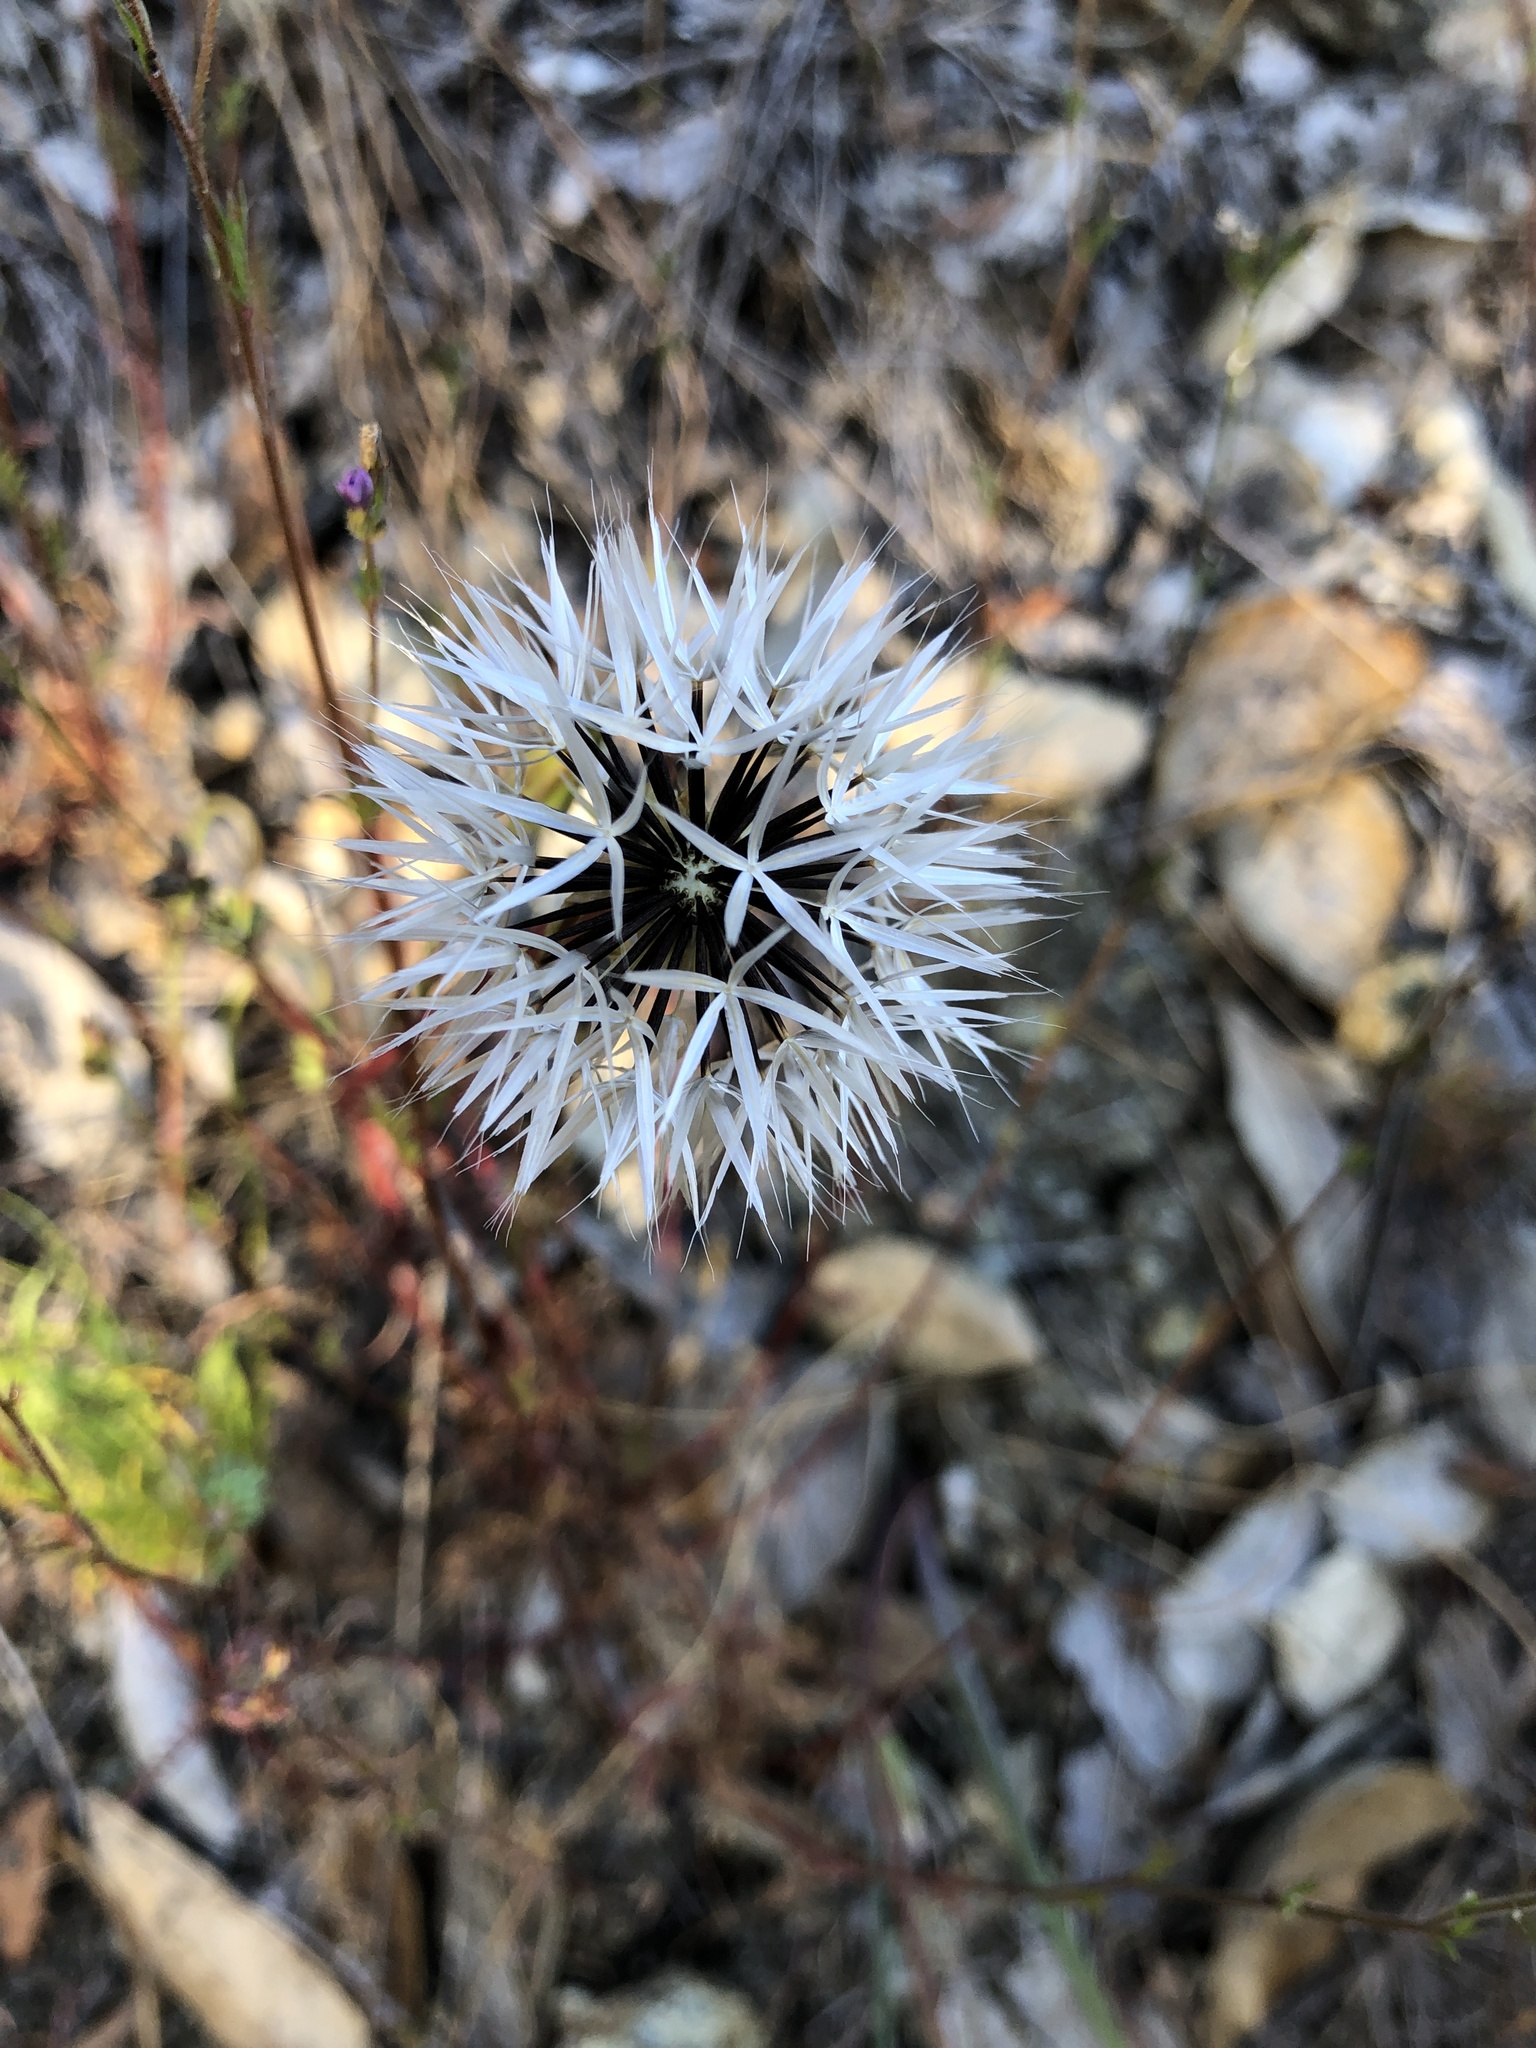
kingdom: Plantae
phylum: Tracheophyta
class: Magnoliopsida
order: Asterales
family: Asteraceae
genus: Microseris
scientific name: Microseris lindleyi
